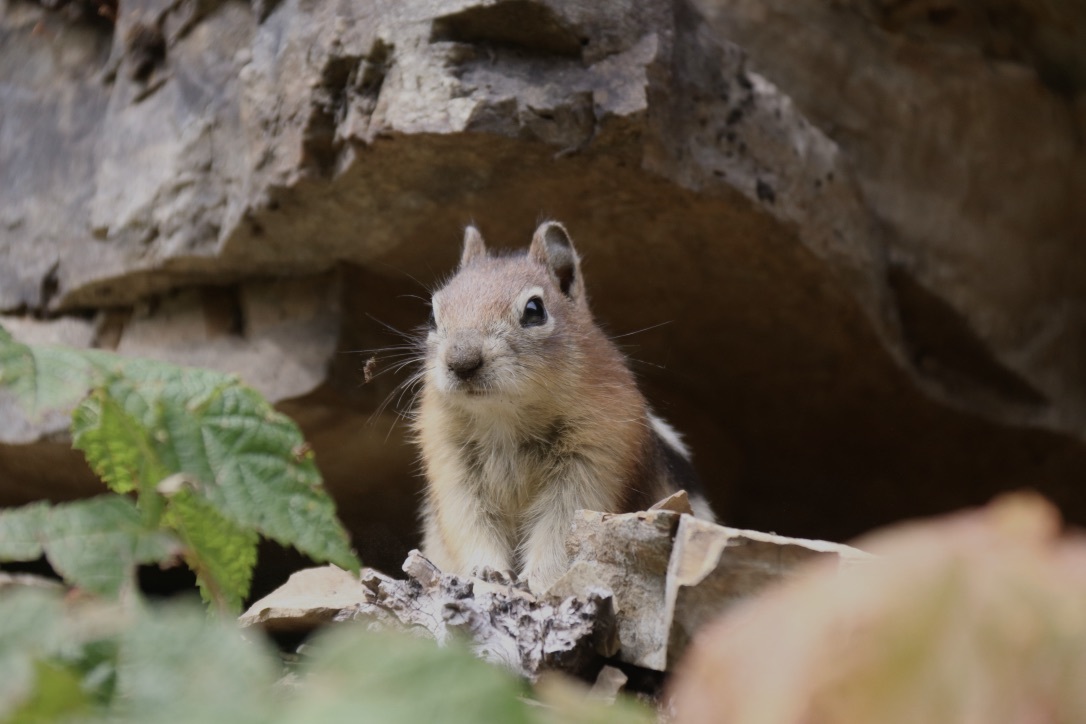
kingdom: Animalia
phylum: Chordata
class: Mammalia
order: Rodentia
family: Sciuridae
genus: Callospermophilus
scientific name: Callospermophilus lateralis
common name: Golden-mantled ground squirrel
